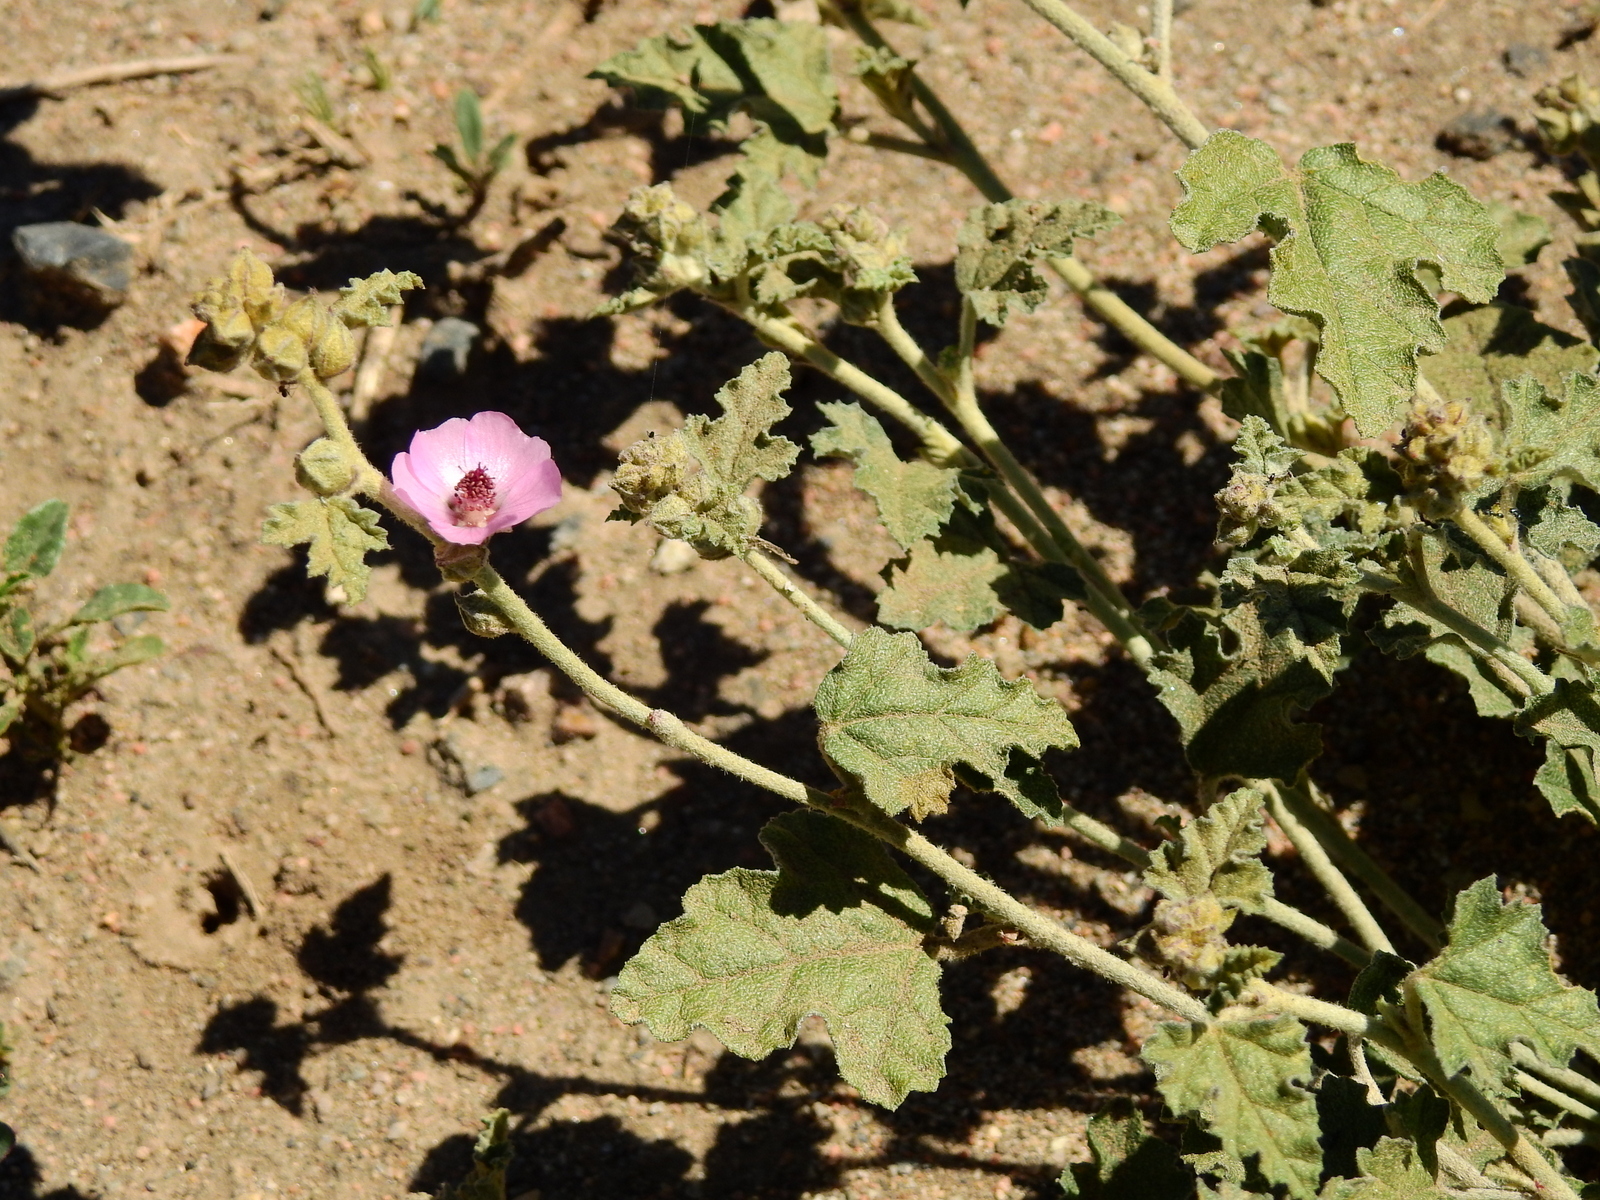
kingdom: Plantae
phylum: Tracheophyta
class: Magnoliopsida
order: Malvales
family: Malvaceae
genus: Sphaeralcea
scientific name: Sphaeralcea mendocina
